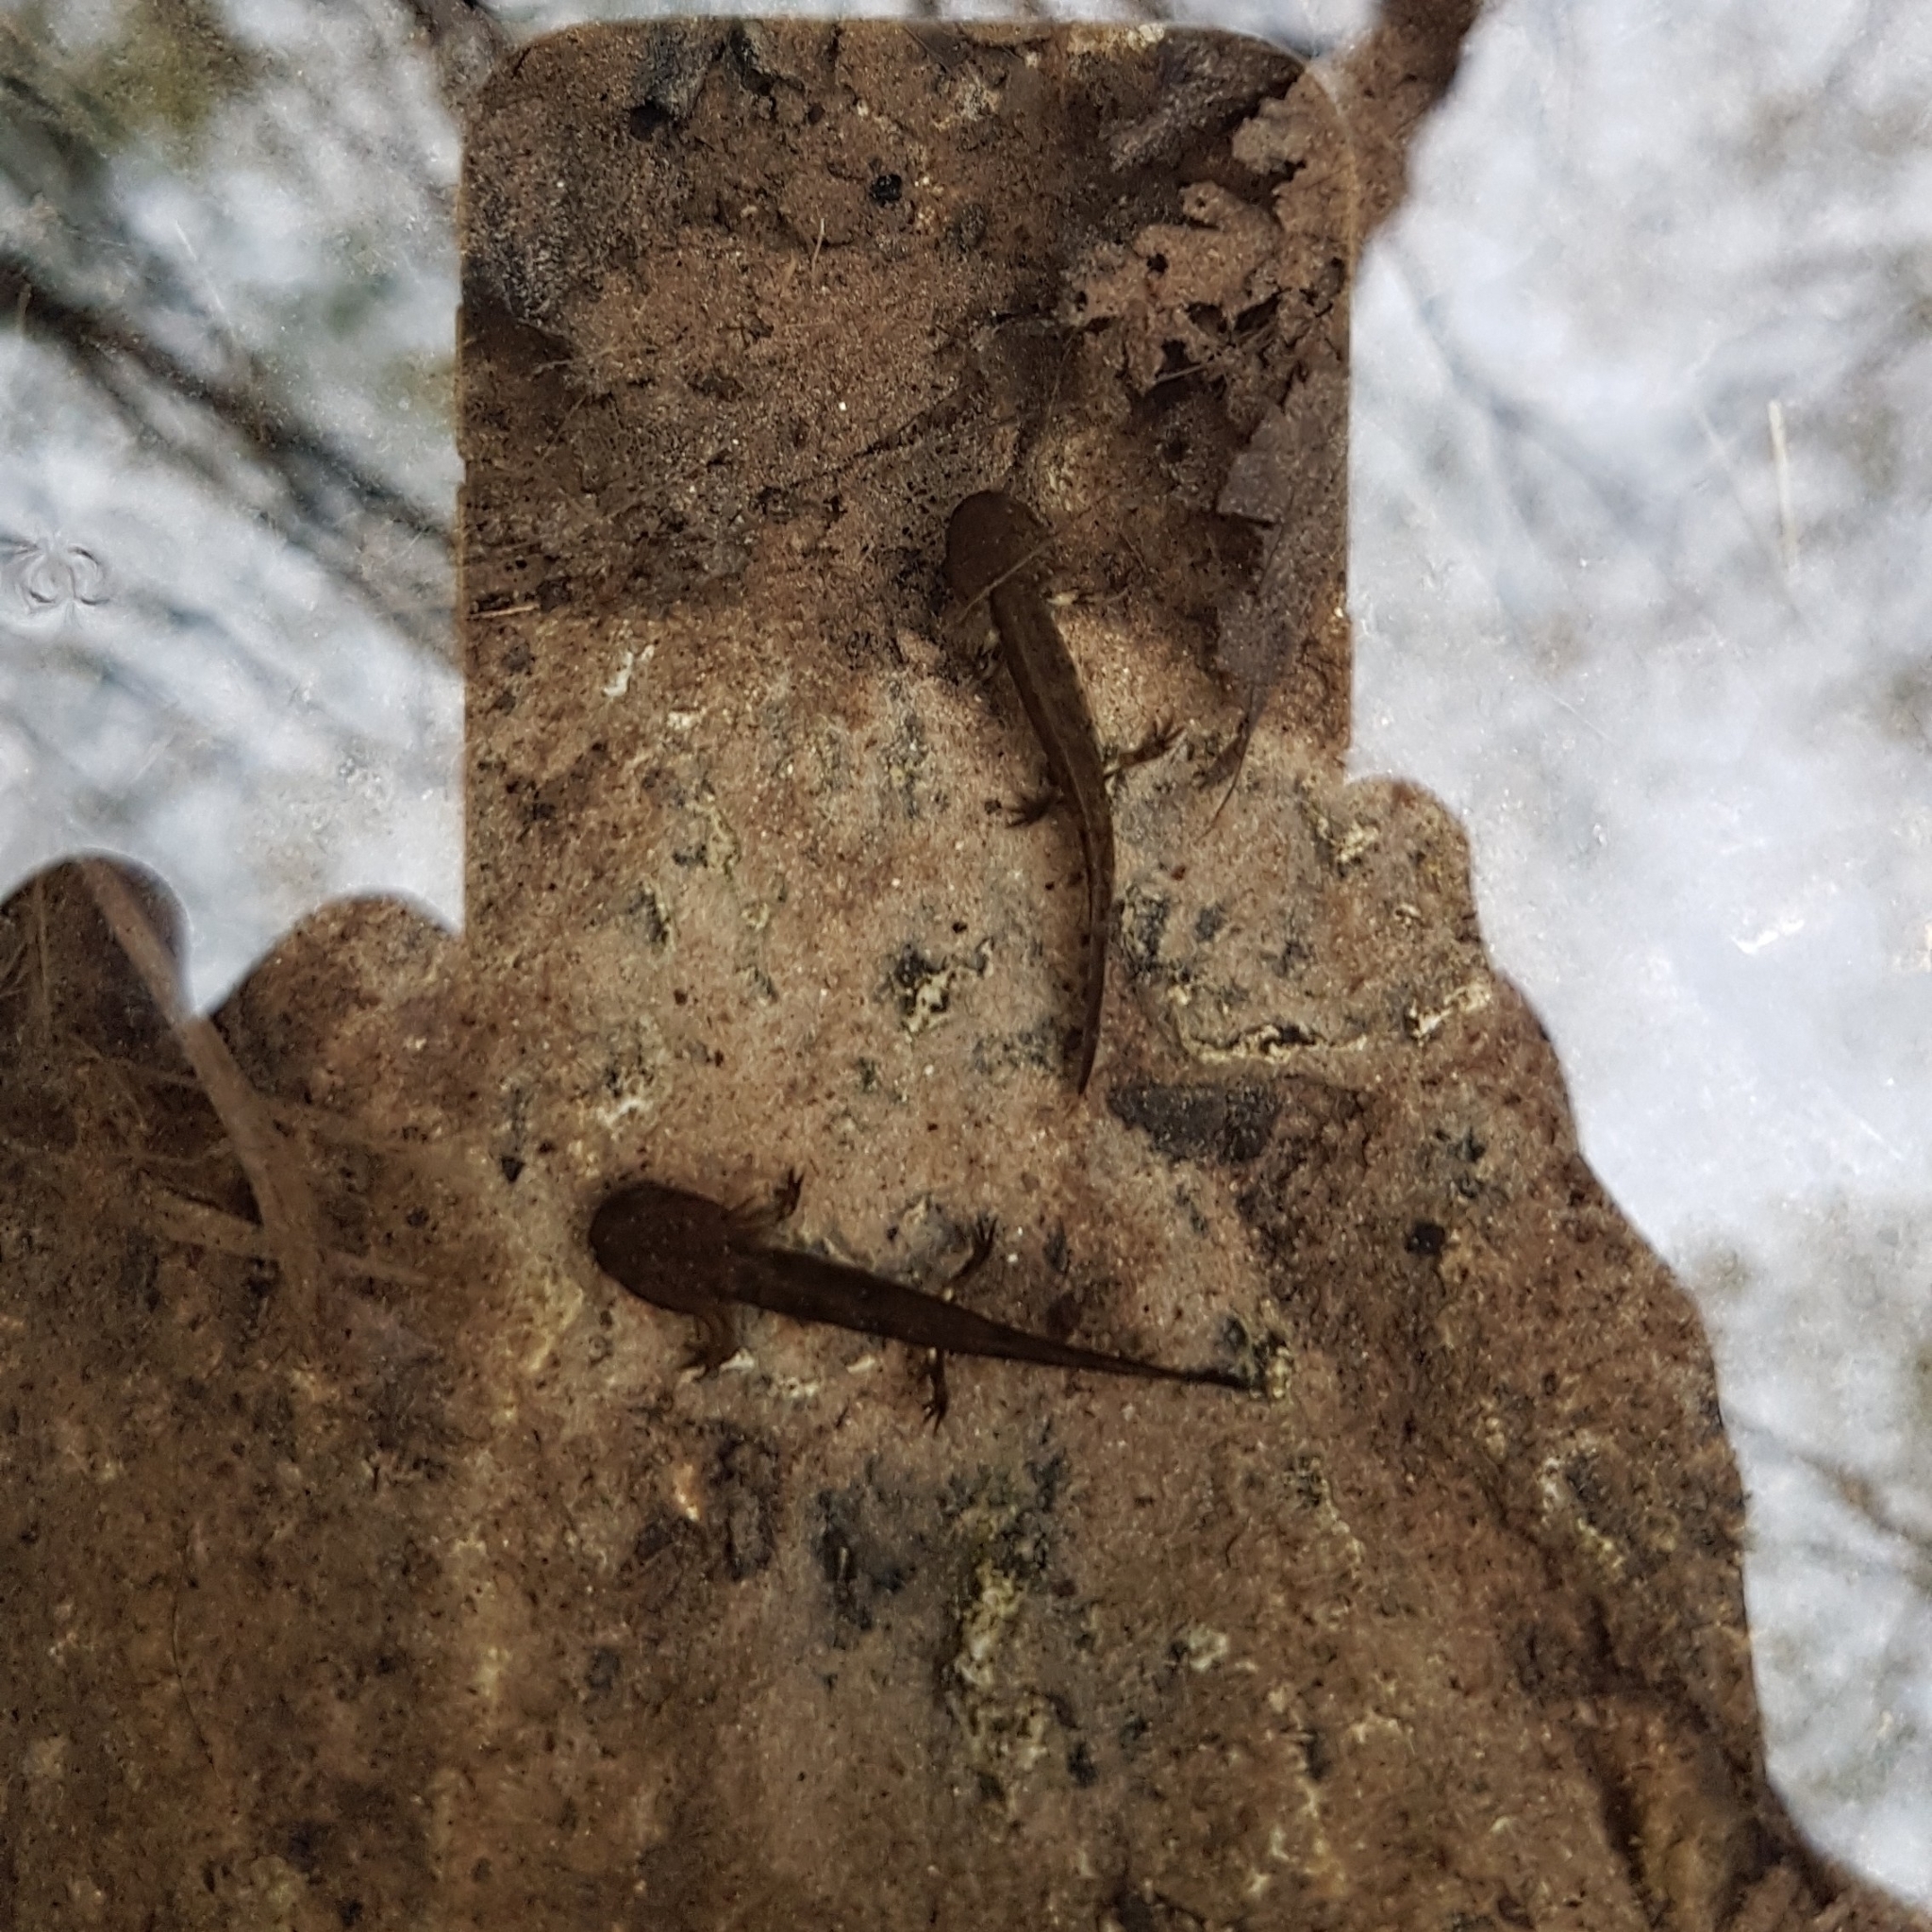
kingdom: Animalia
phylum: Chordata
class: Amphibia
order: Caudata
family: Salamandridae
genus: Salamandra
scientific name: Salamandra salamandra
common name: Fire salamander
